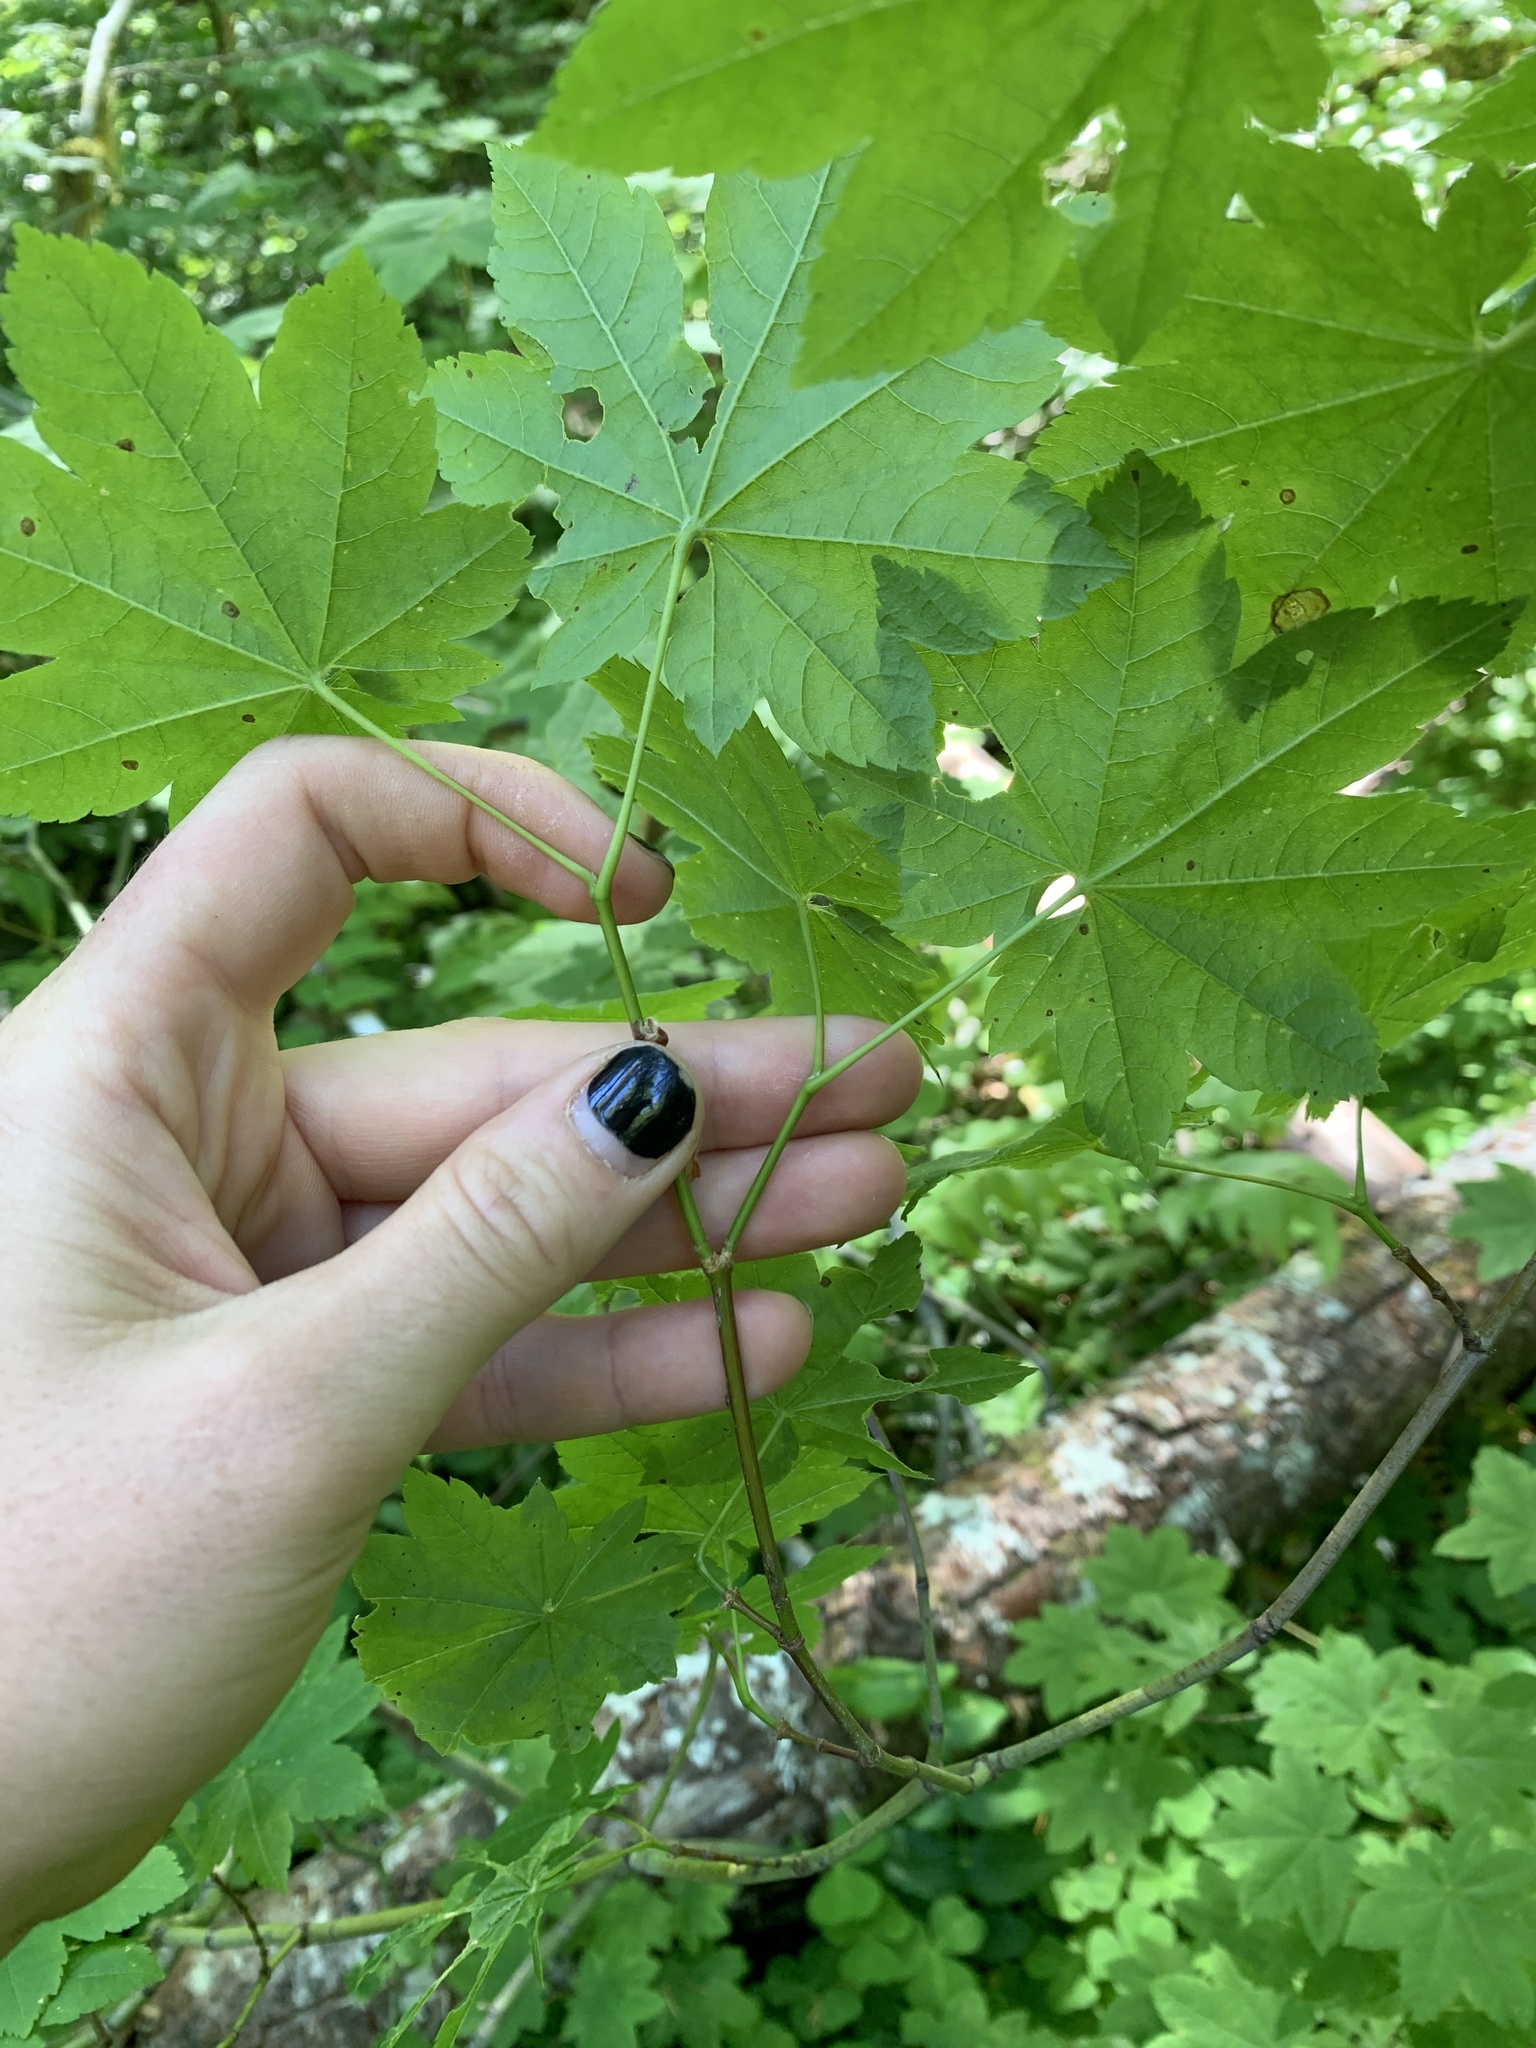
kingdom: Plantae
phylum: Tracheophyta
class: Magnoliopsida
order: Sapindales
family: Sapindaceae
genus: Acer
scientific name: Acer circinatum
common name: Vine maple
